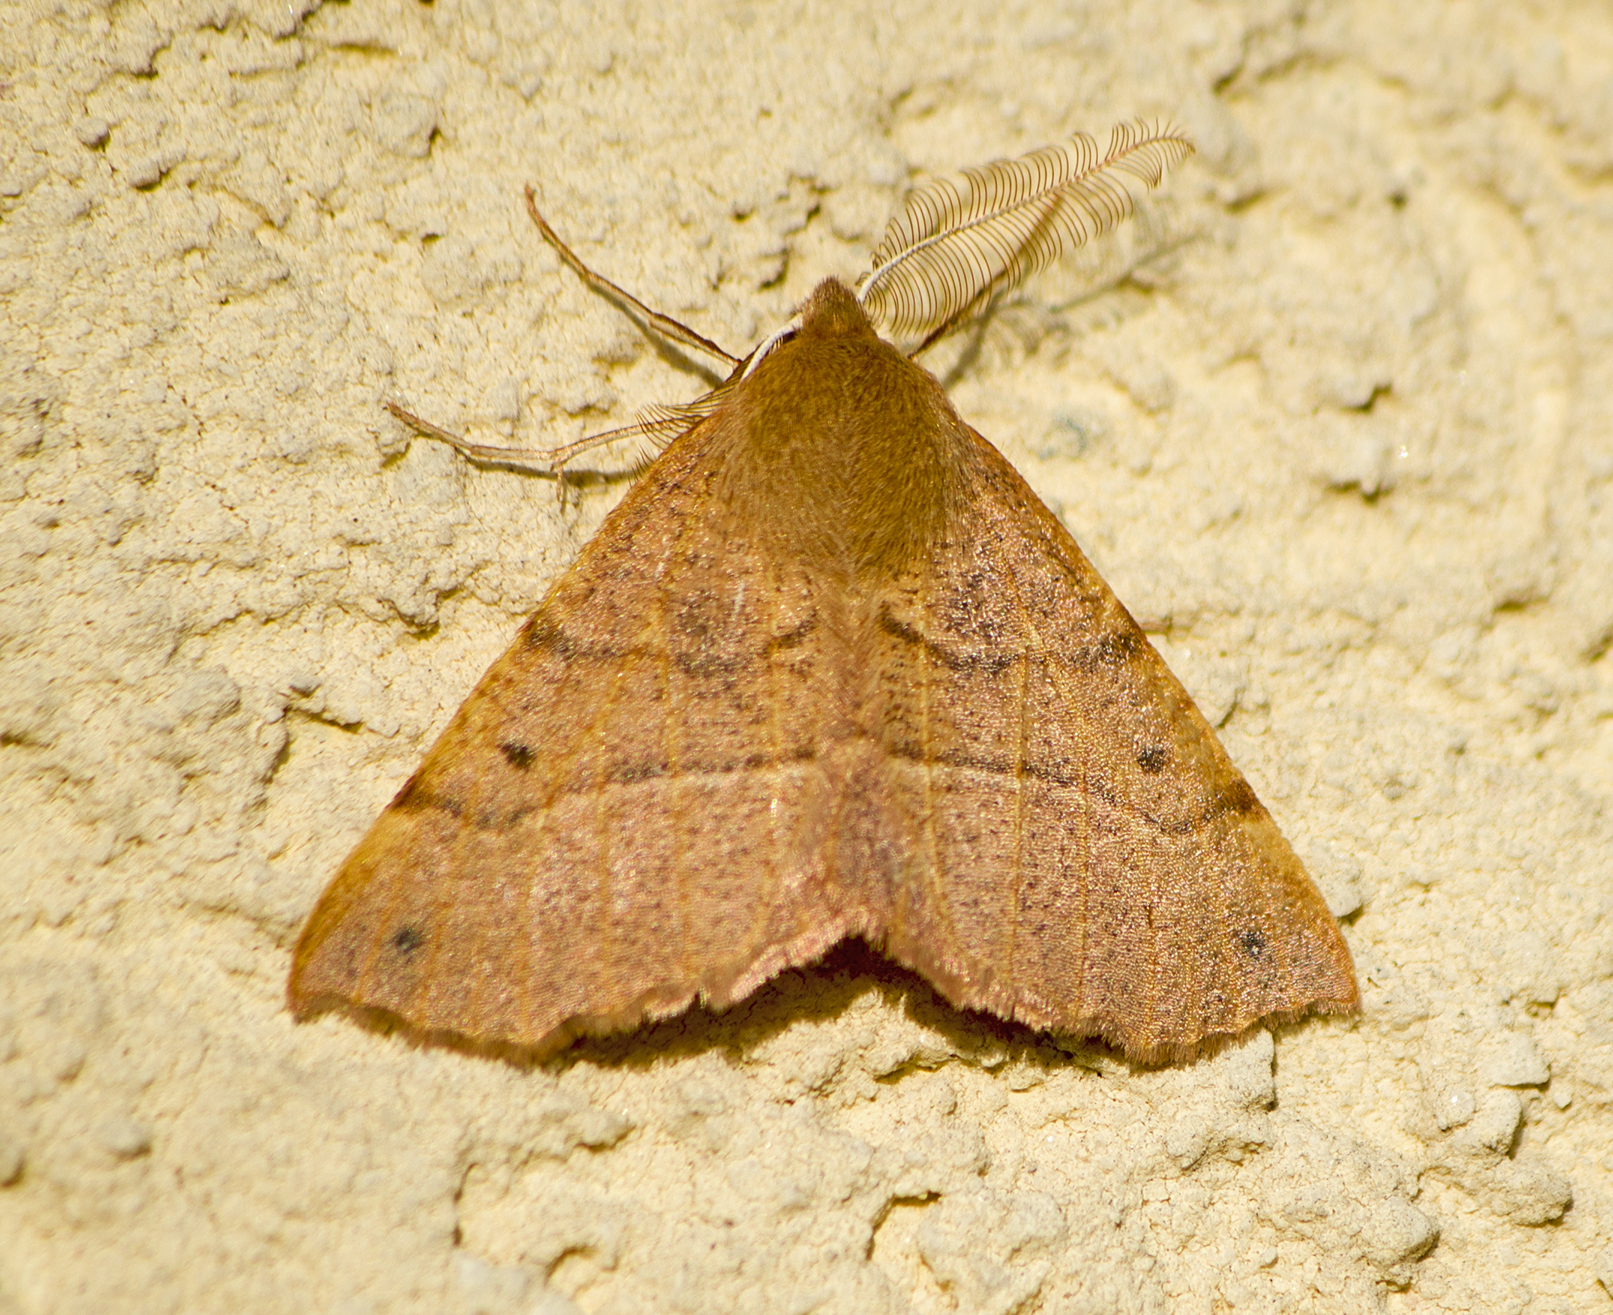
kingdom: Animalia
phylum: Arthropoda
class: Insecta
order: Lepidoptera
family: Geometridae
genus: Colotois
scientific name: Colotois pennaria
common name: Feathered thorn
